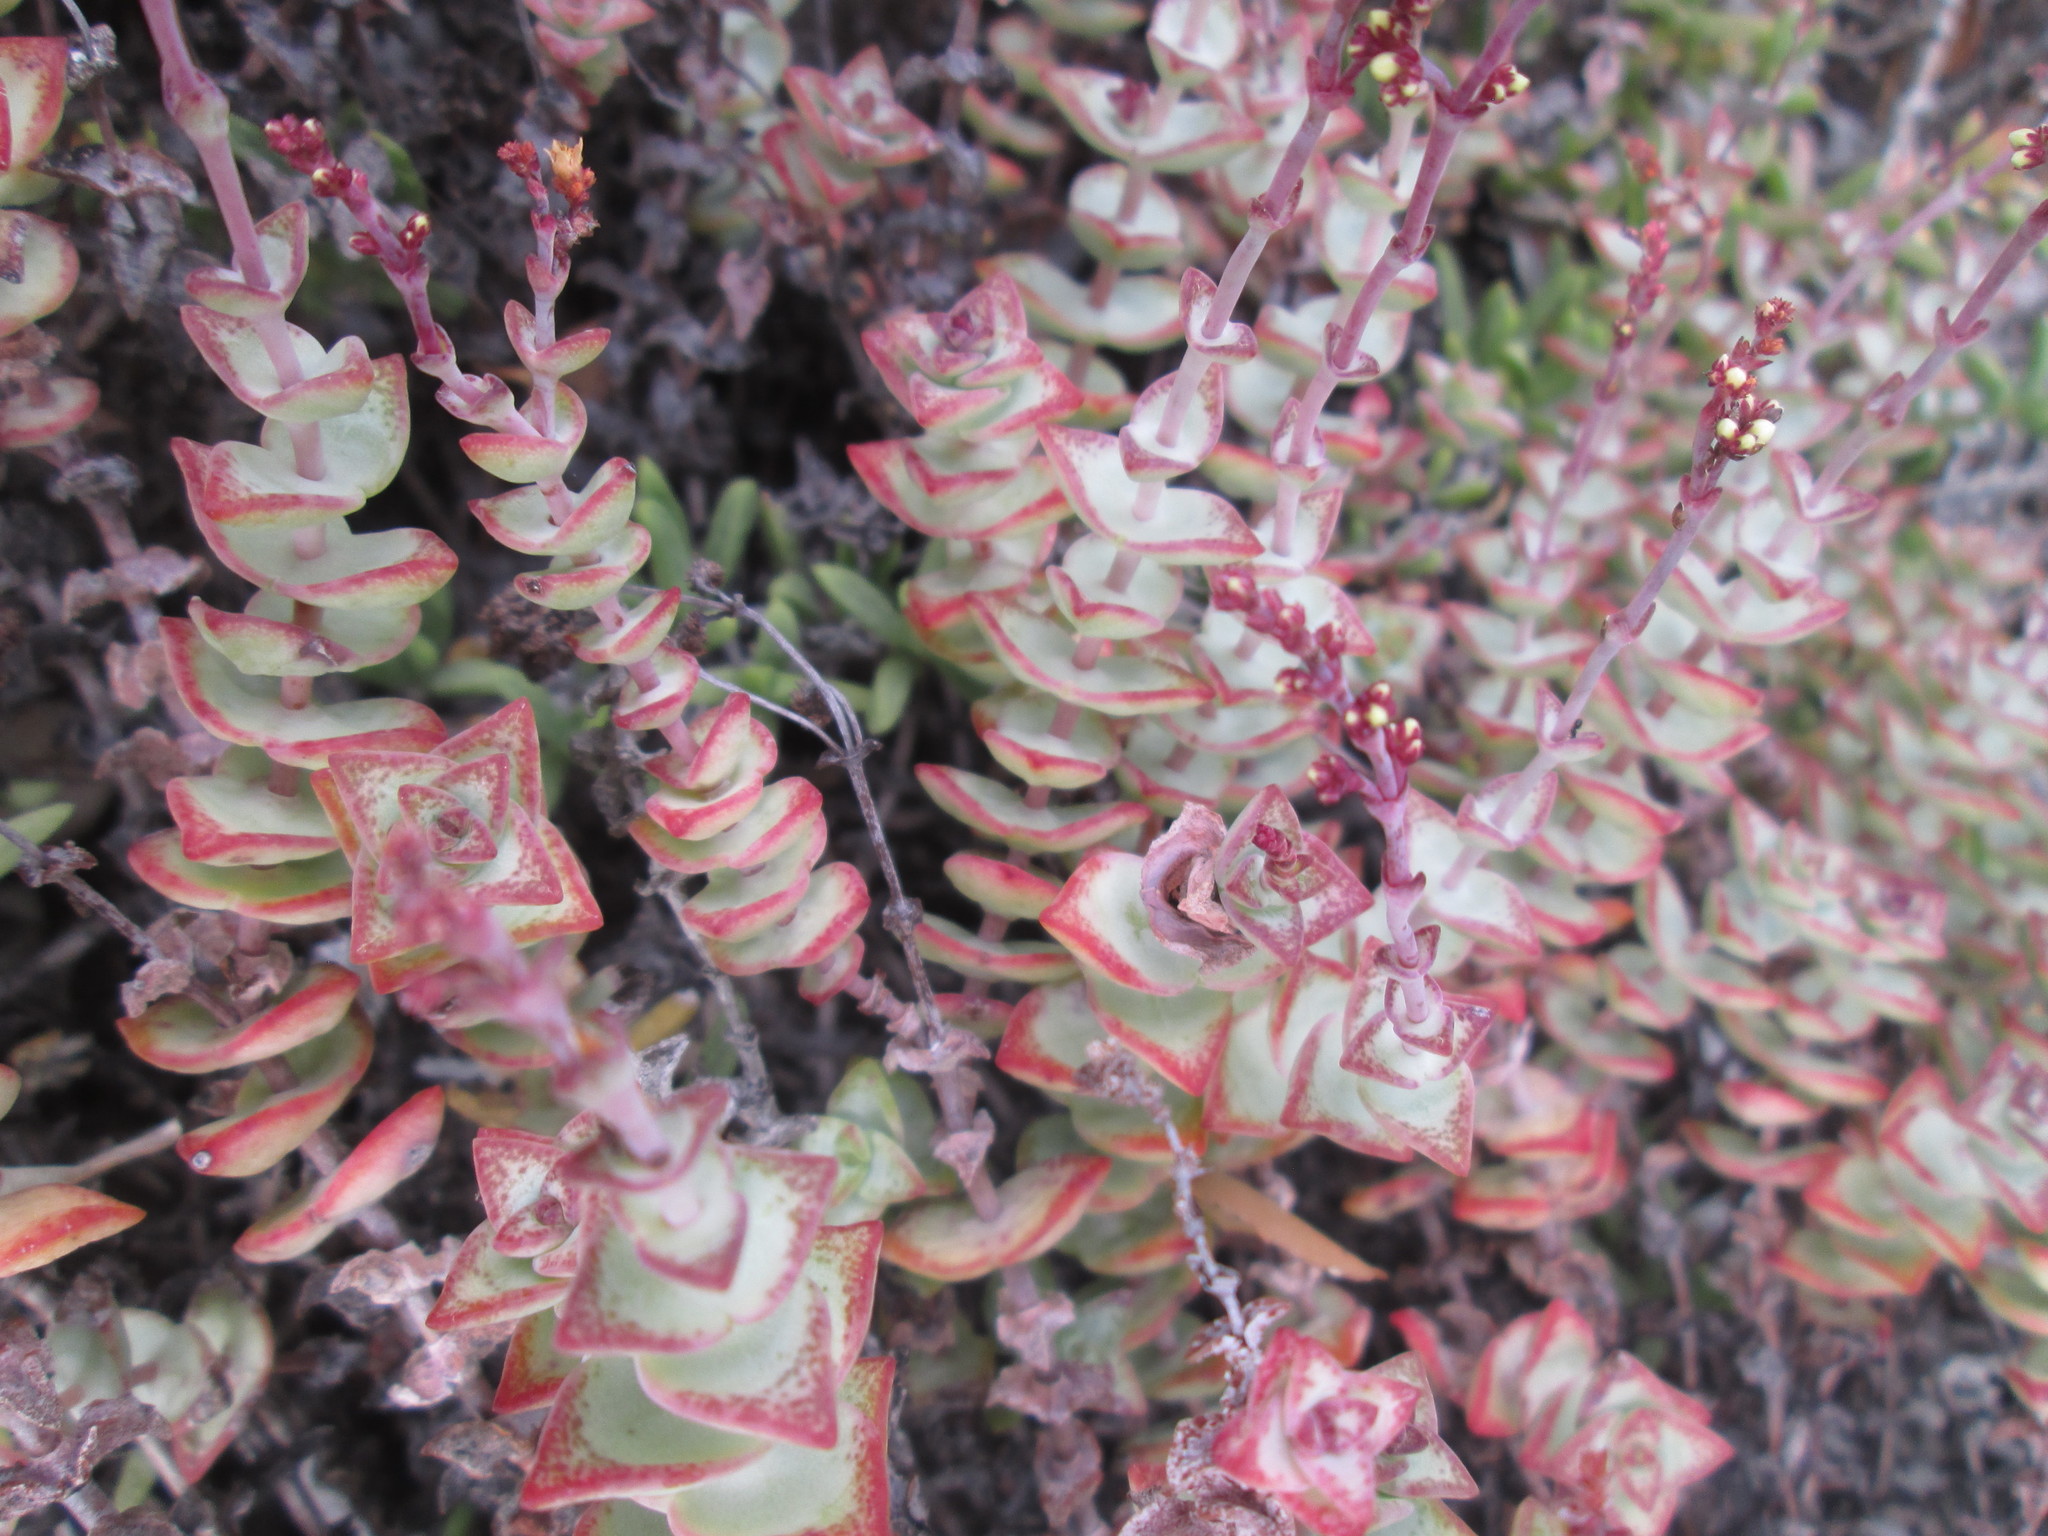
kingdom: Plantae
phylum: Tracheophyta
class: Magnoliopsida
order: Saxifragales
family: Crassulaceae
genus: Crassula
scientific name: Crassula perforata
